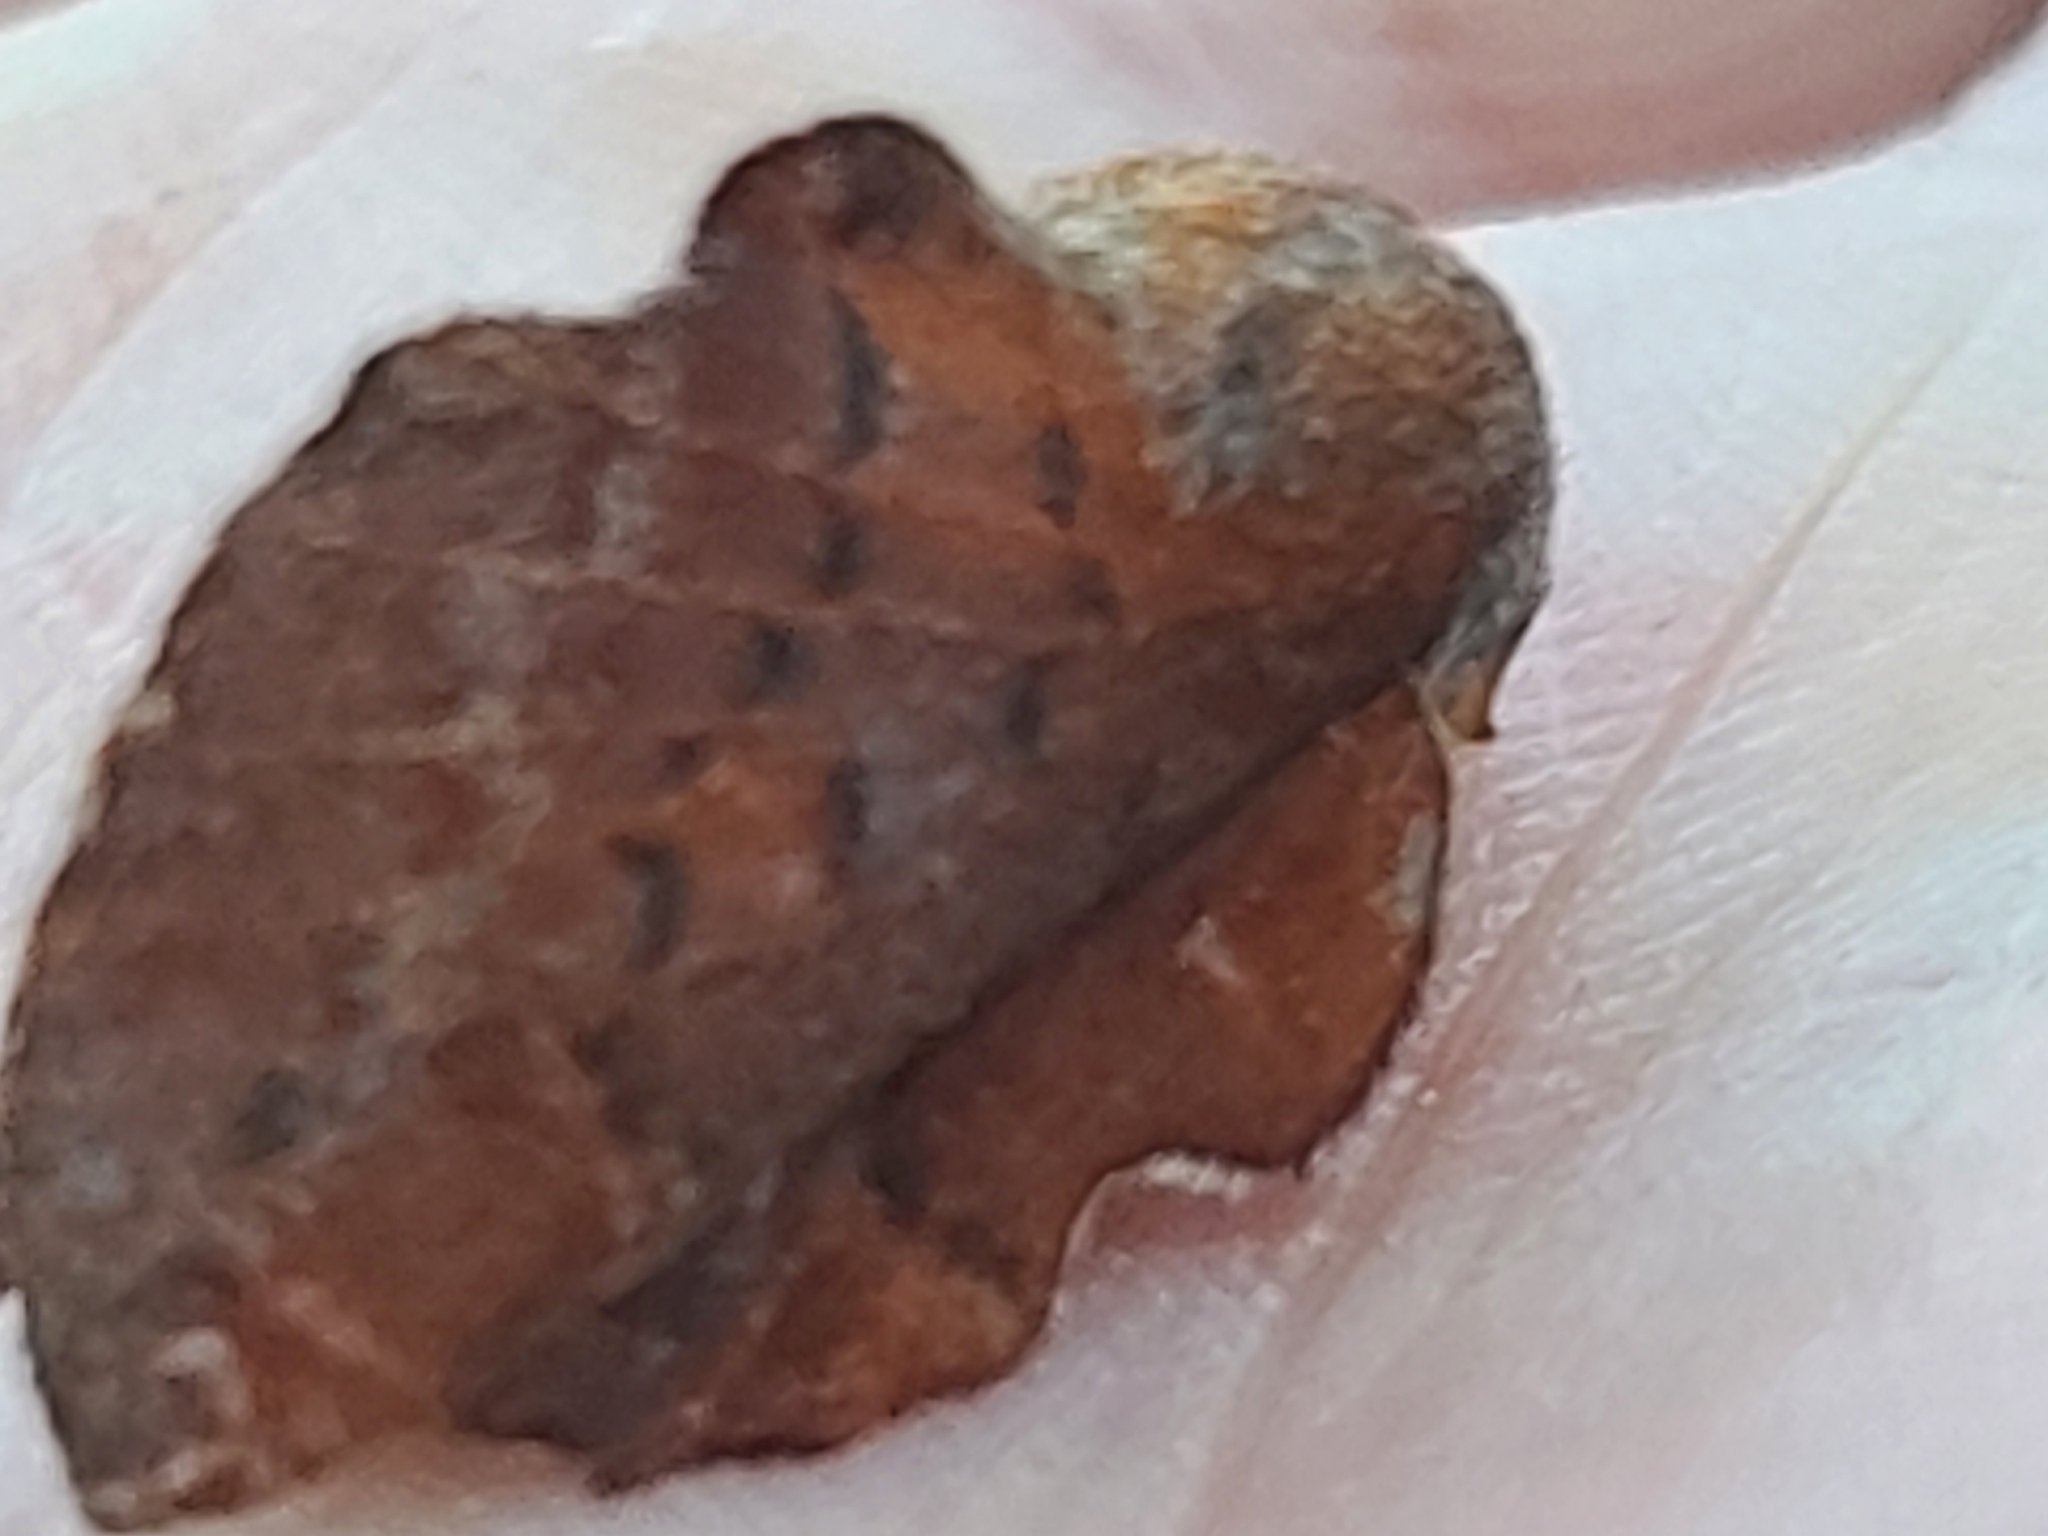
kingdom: Animalia
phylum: Arthropoda
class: Insecta
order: Lepidoptera
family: Lasiocampidae
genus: Phyllodesma
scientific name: Phyllodesma americana
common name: American lappet moth
